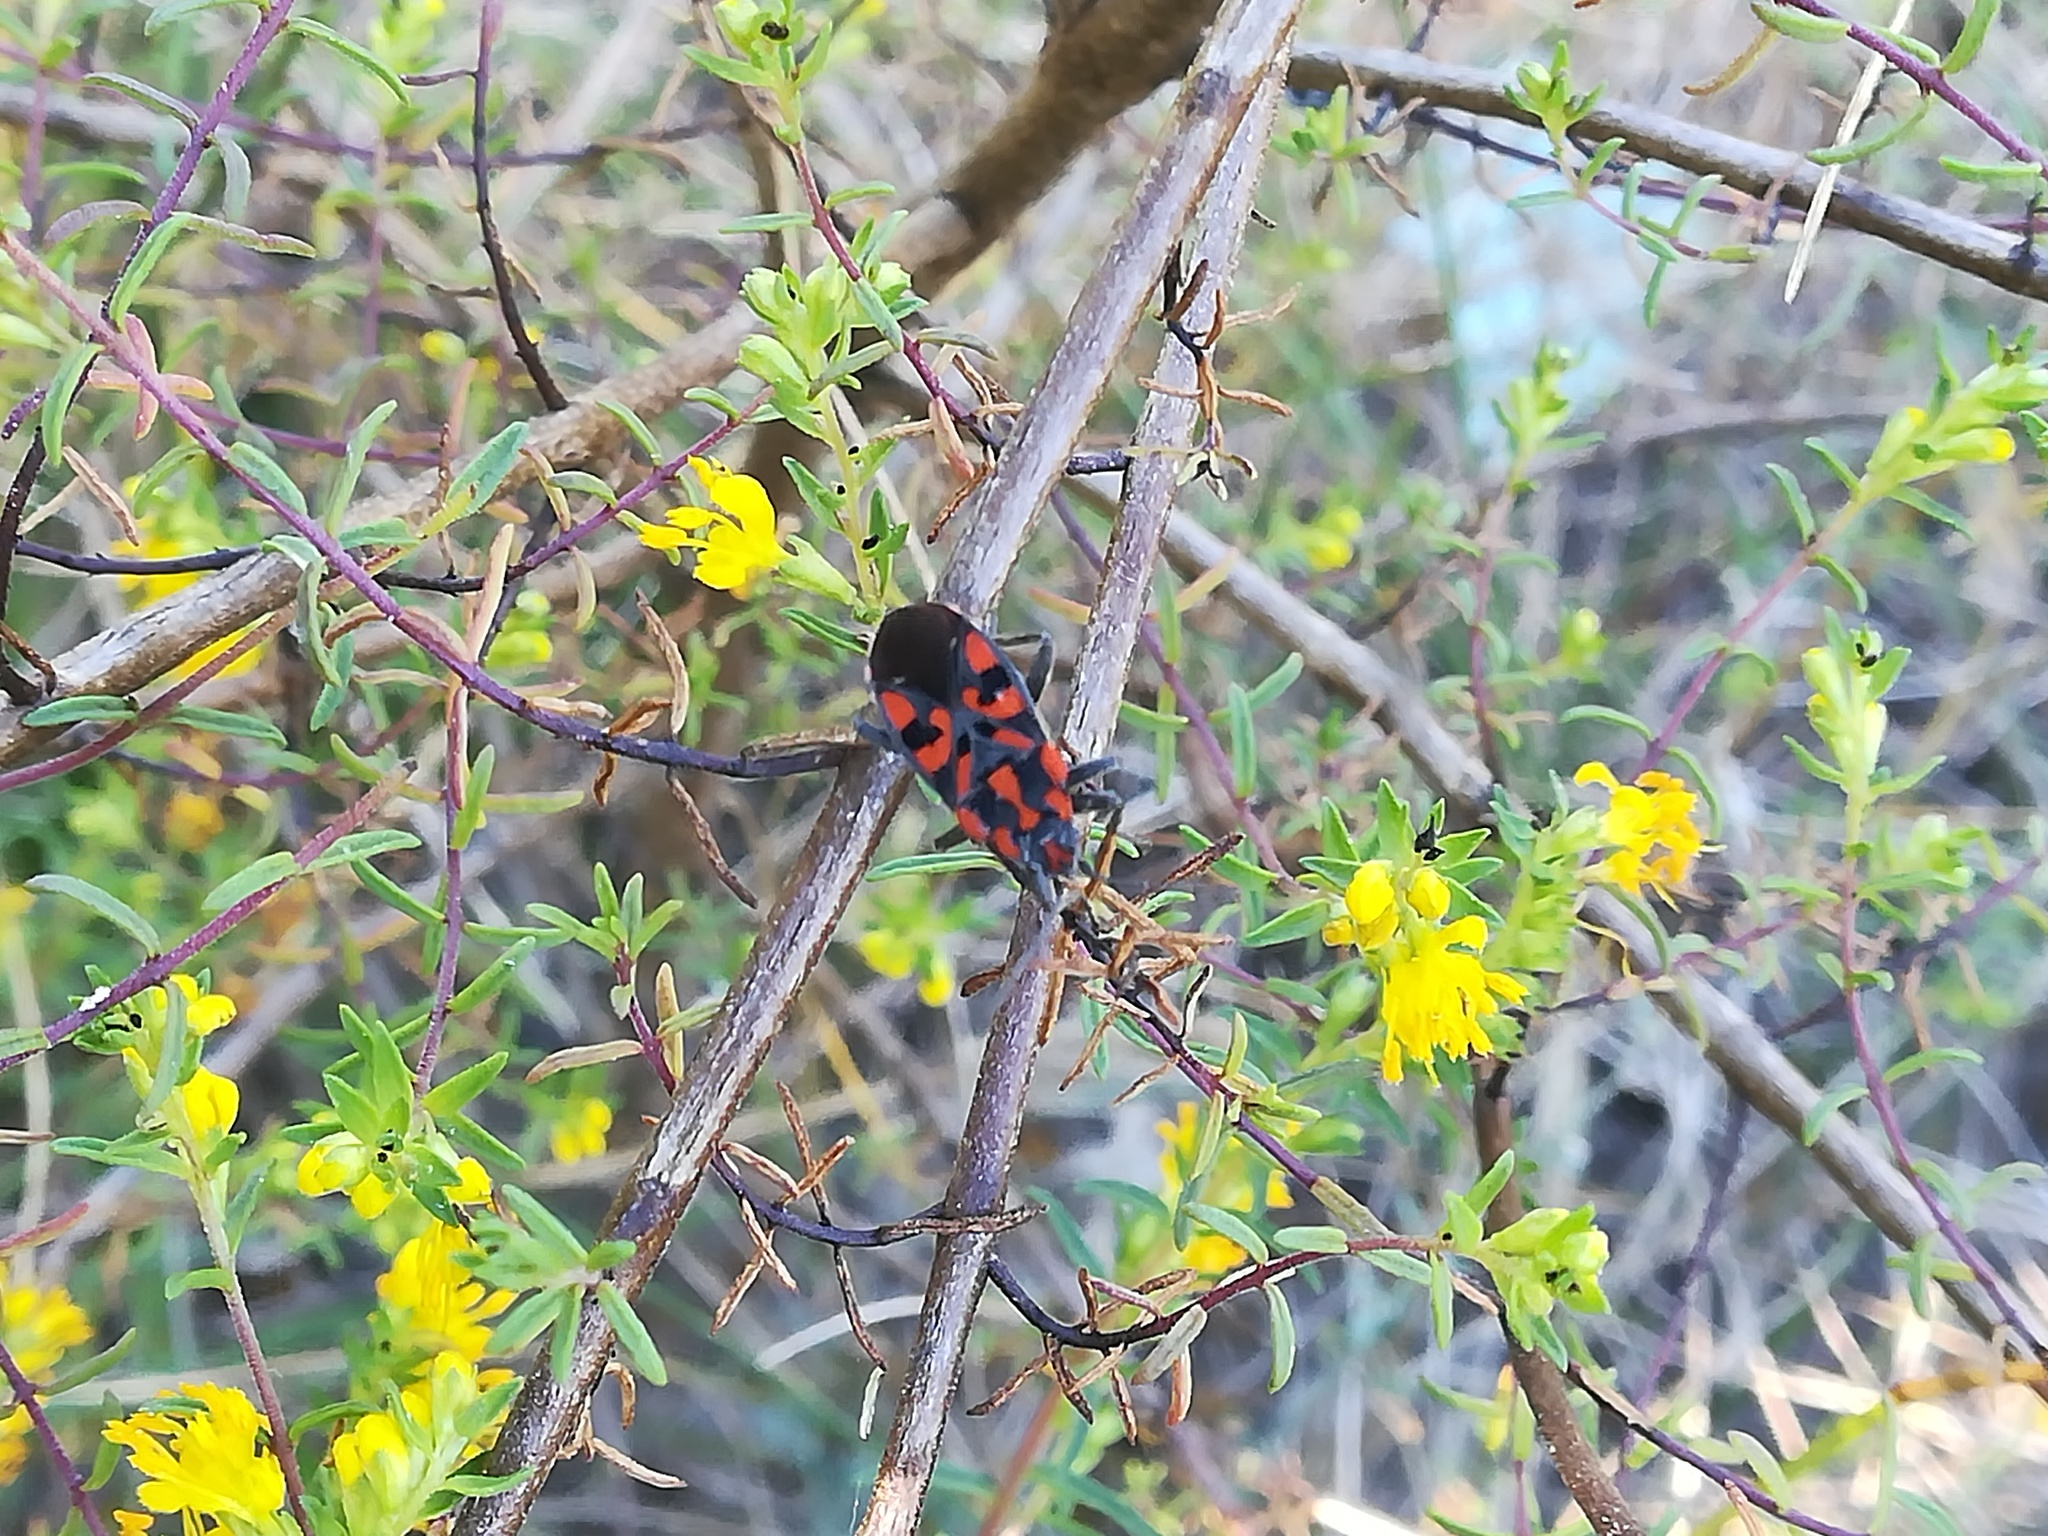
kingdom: Animalia
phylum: Arthropoda
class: Insecta
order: Hemiptera
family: Lygaeidae
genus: Spilostethus
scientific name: Spilostethus saxatilis
